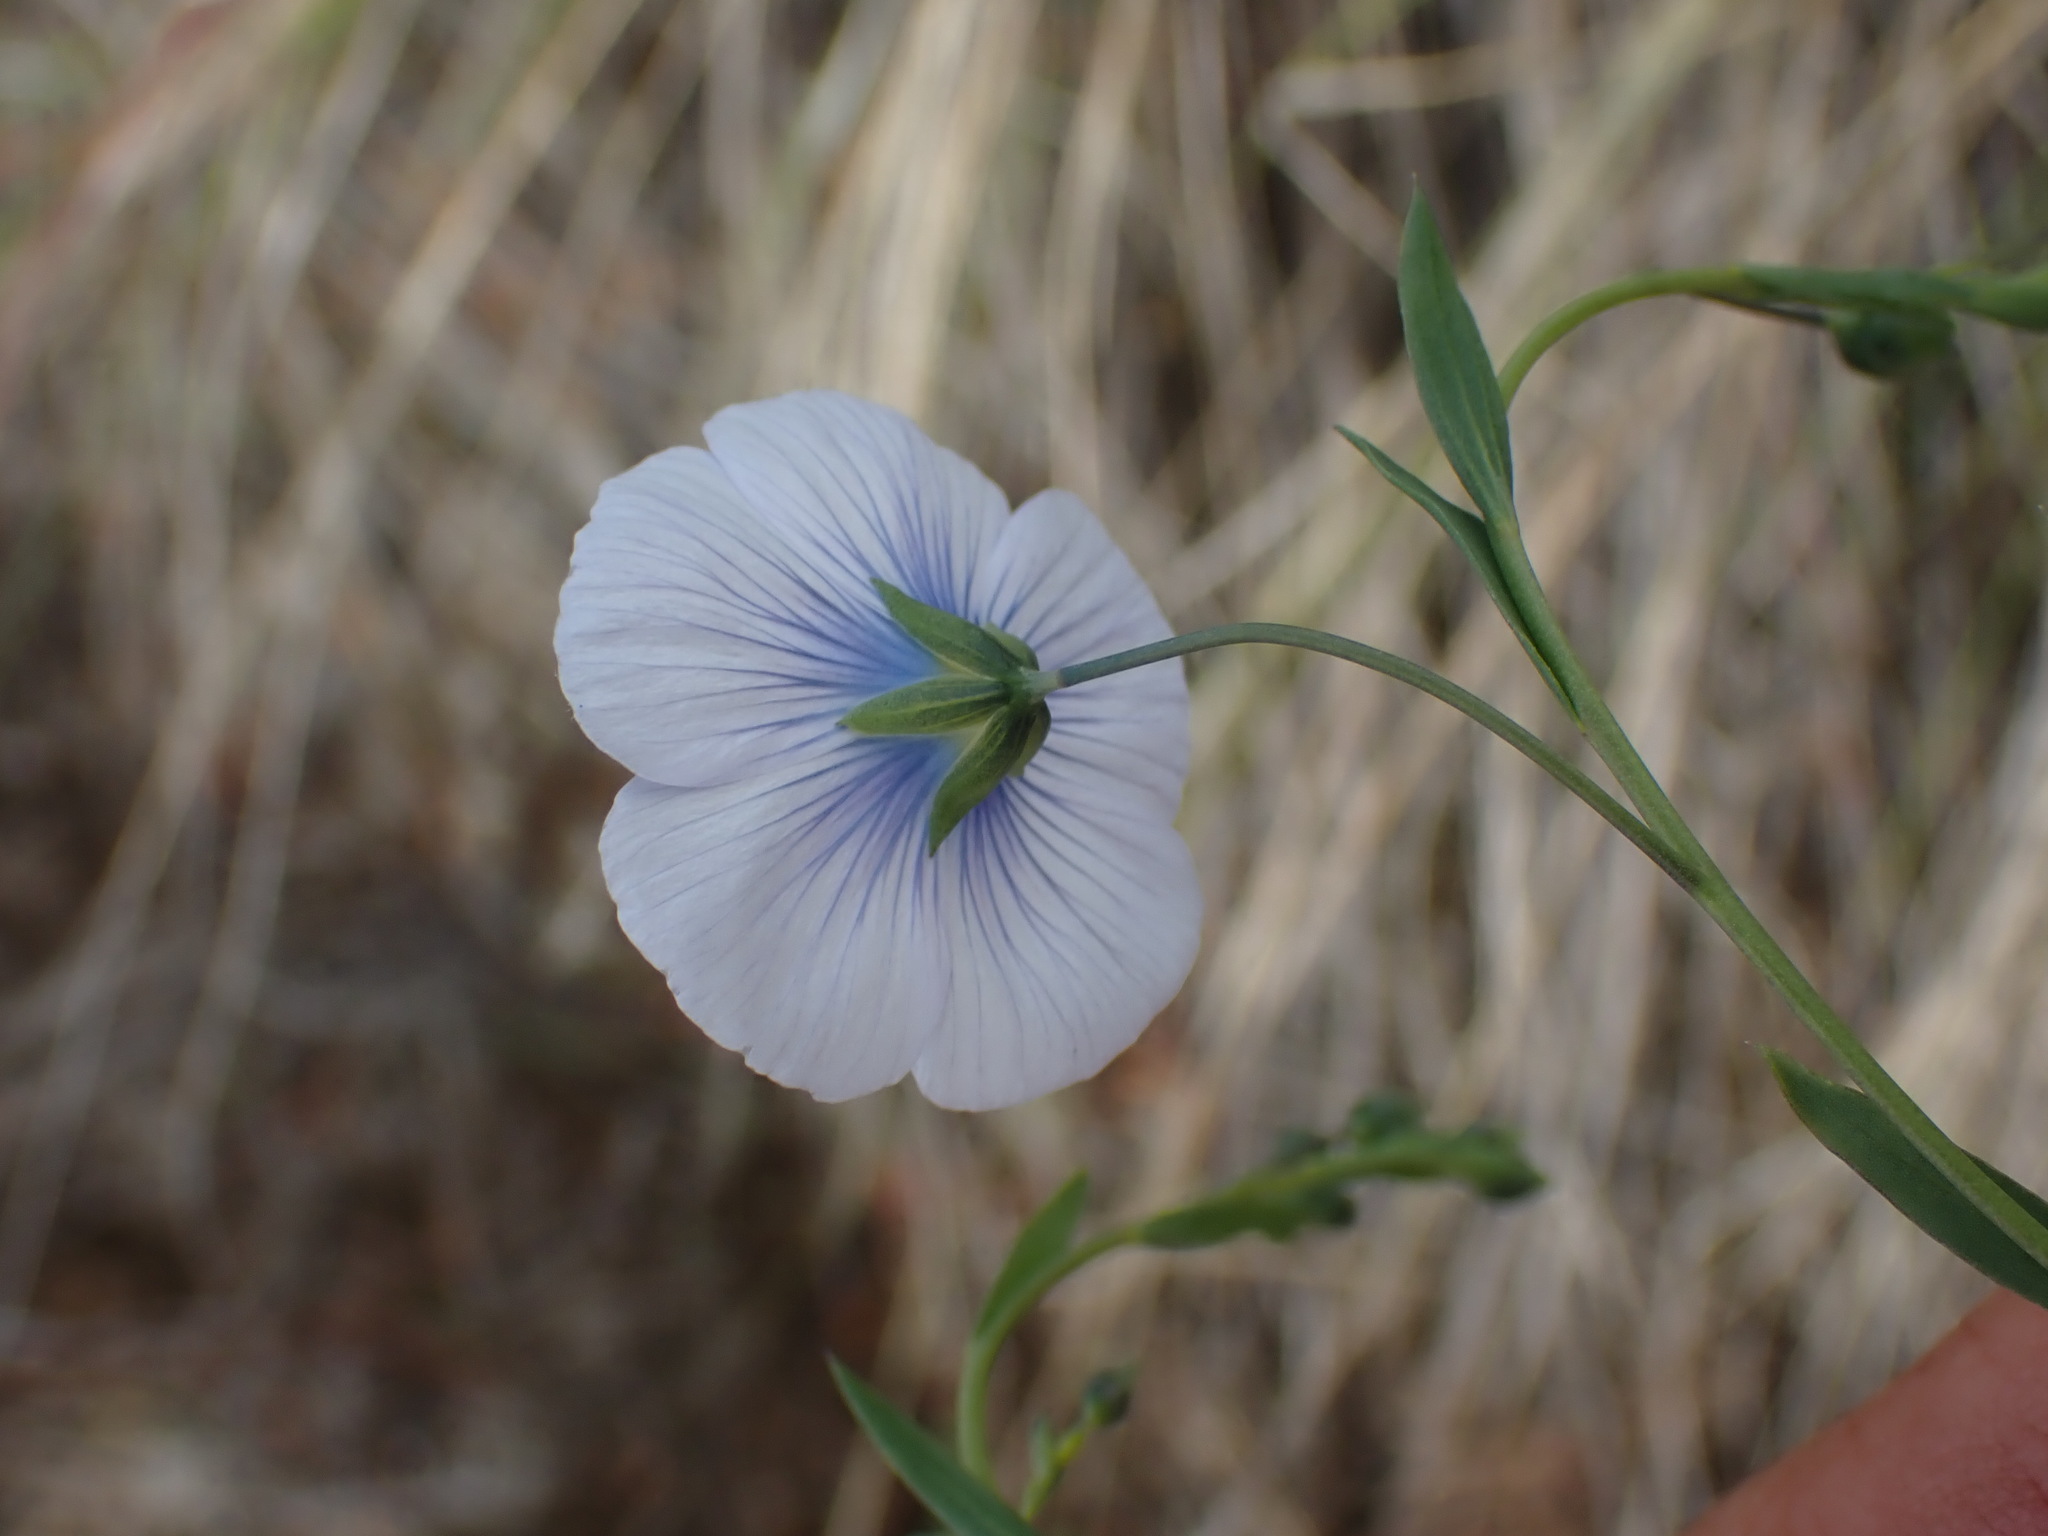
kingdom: Plantae
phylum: Tracheophyta
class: Magnoliopsida
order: Malpighiales
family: Linaceae
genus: Linum
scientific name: Linum lewisii
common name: Prairie flax
